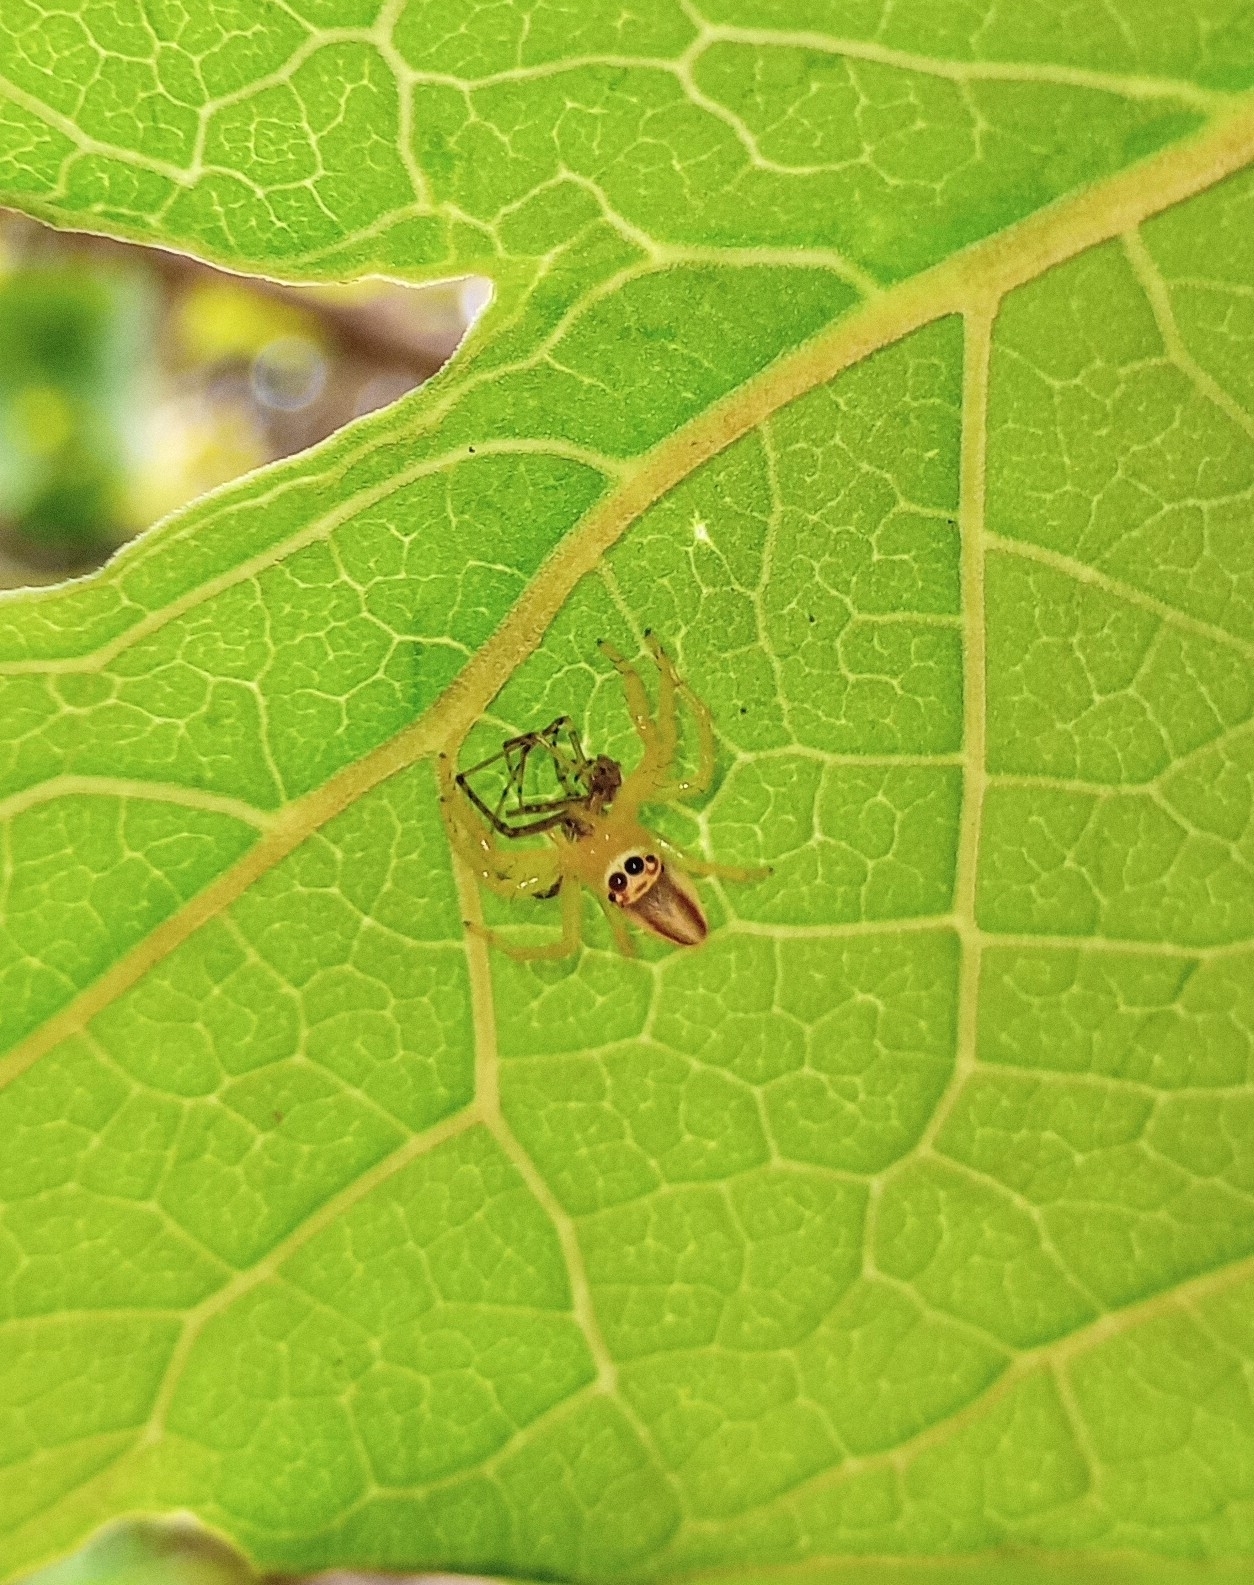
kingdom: Animalia
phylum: Arthropoda
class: Arachnida
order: Araneae
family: Salticidae
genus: Telamonia
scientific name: Telamonia dimidiata
